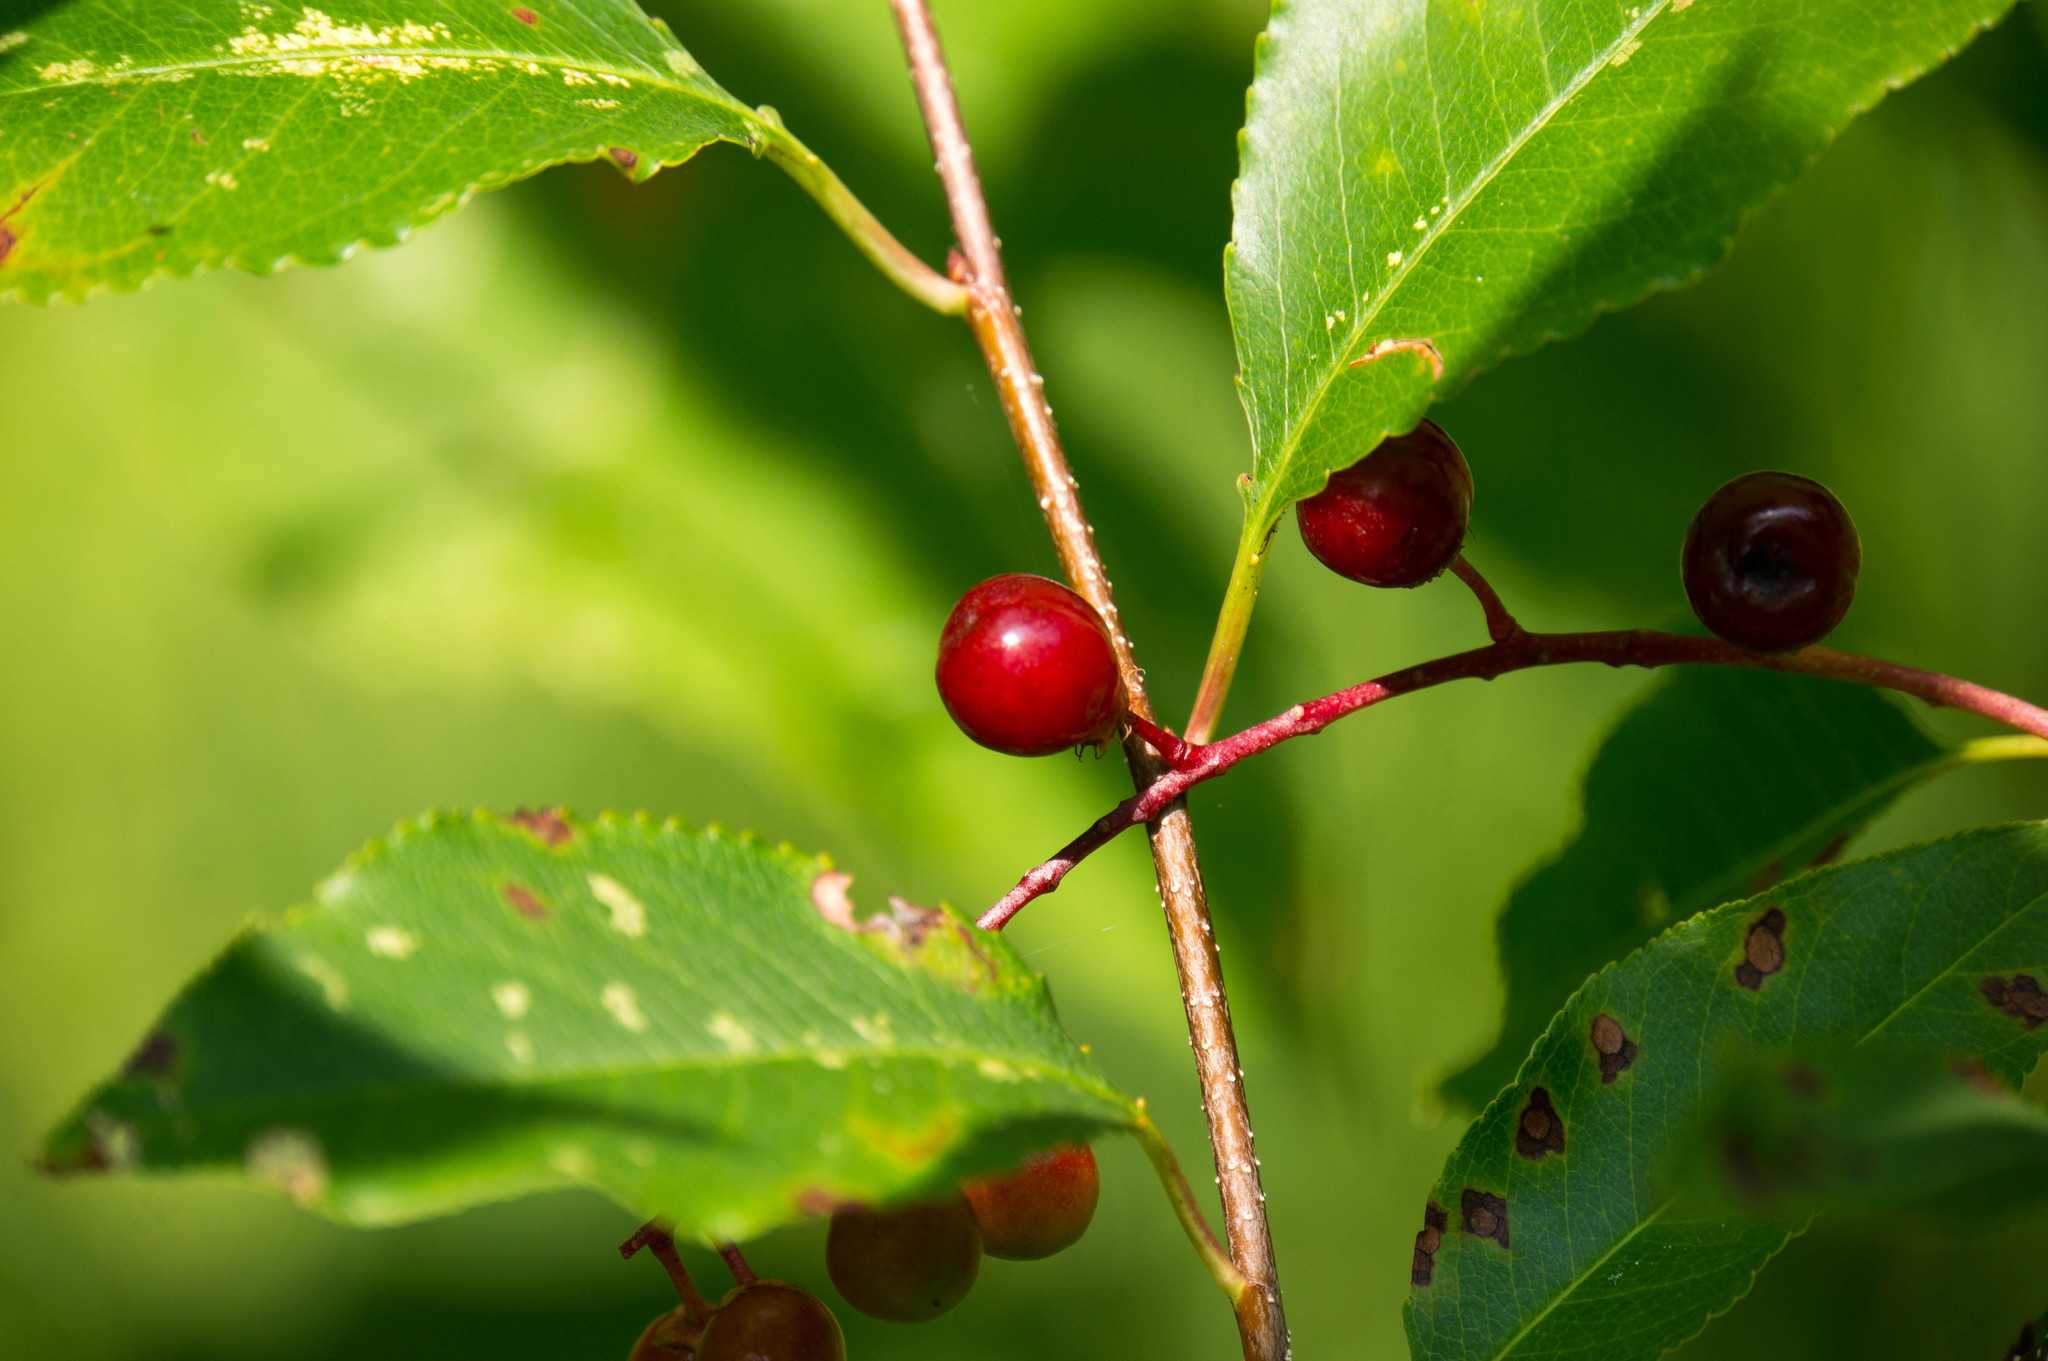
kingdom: Plantae
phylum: Tracheophyta
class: Magnoliopsida
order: Rosales
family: Rosaceae
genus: Prunus
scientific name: Prunus serotina
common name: Black cherry
